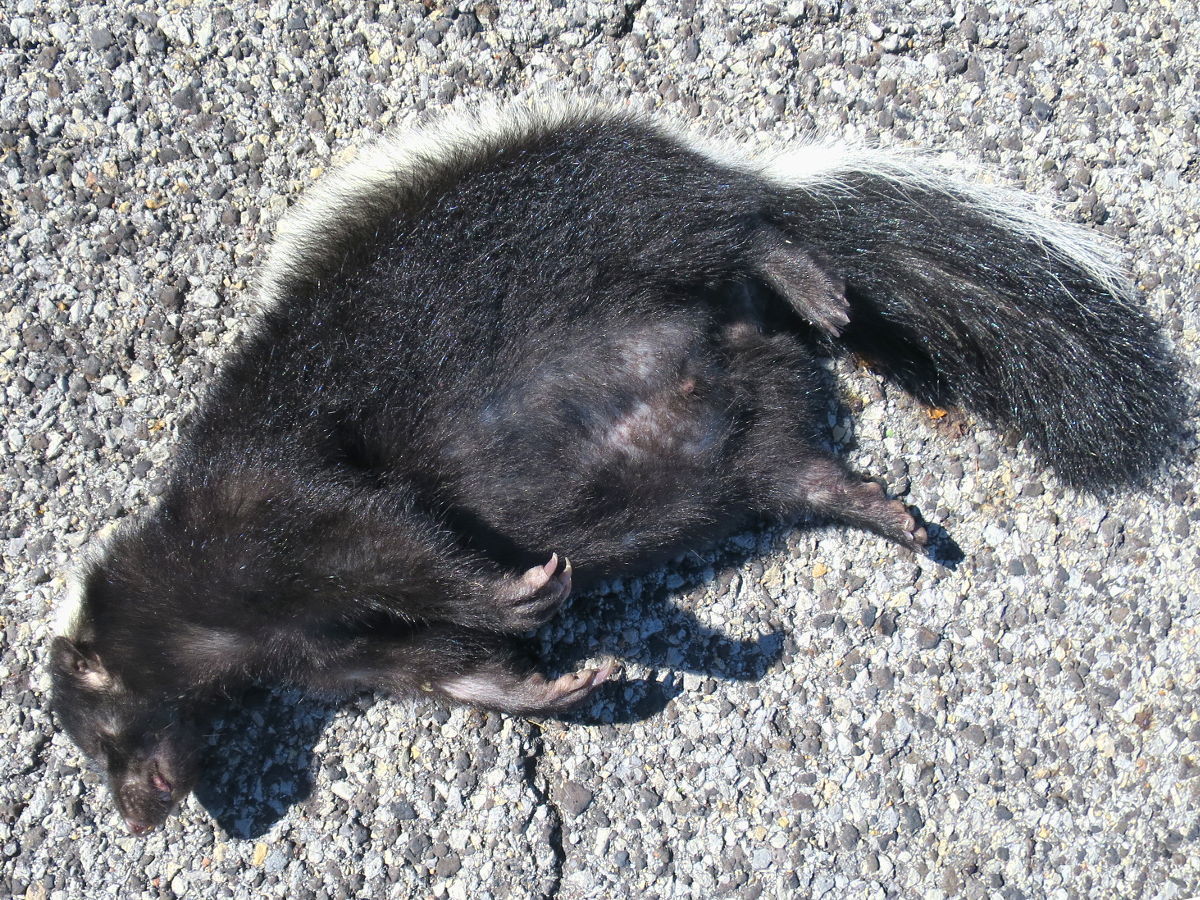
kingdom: Animalia
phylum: Chordata
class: Mammalia
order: Carnivora
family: Mephitidae
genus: Mephitis
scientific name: Mephitis mephitis
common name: Striped skunk
